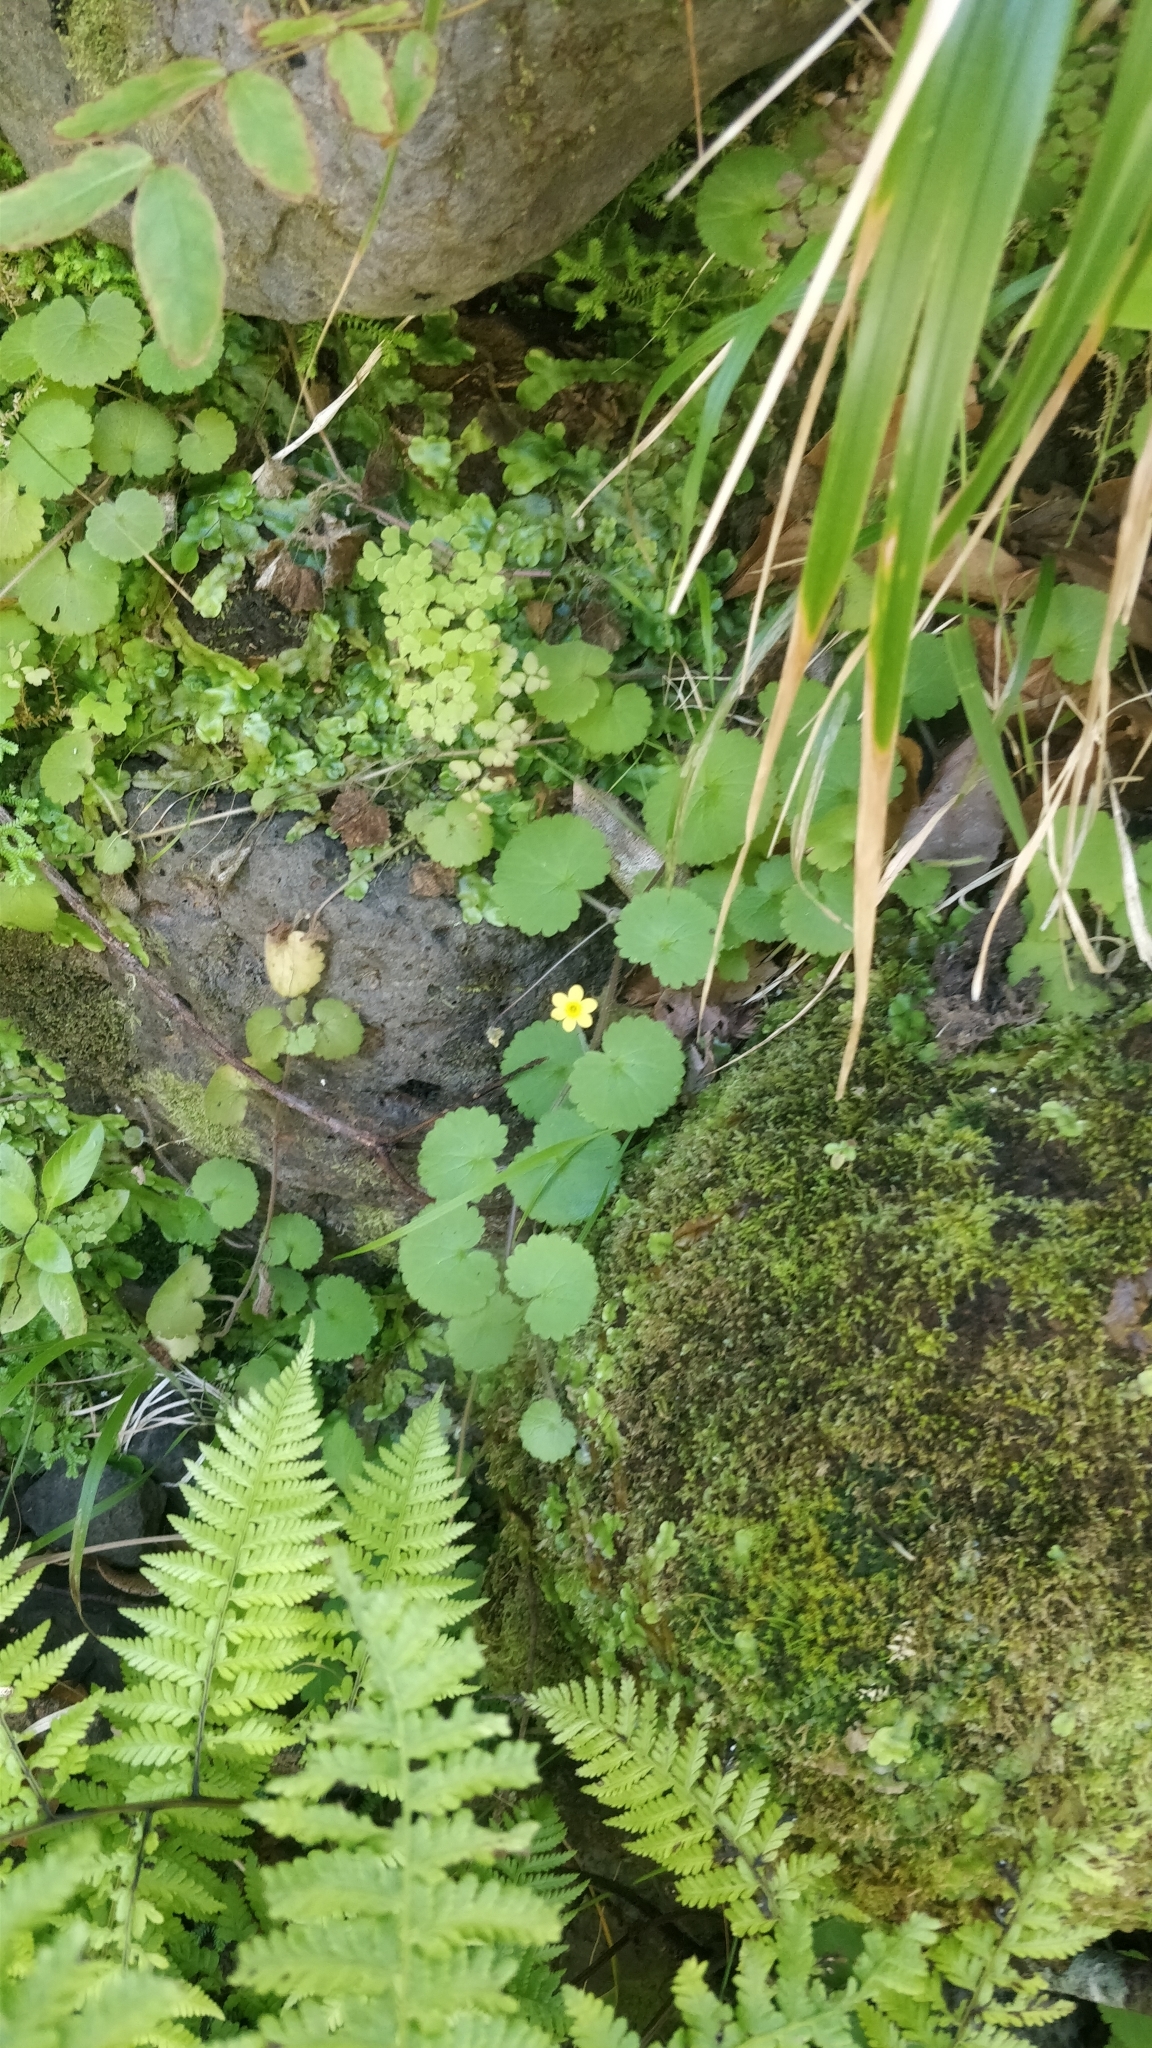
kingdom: Plantae
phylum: Tracheophyta
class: Magnoliopsida
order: Lamiales
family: Plantaginaceae
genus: Sibthorpia
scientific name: Sibthorpia peregrina
